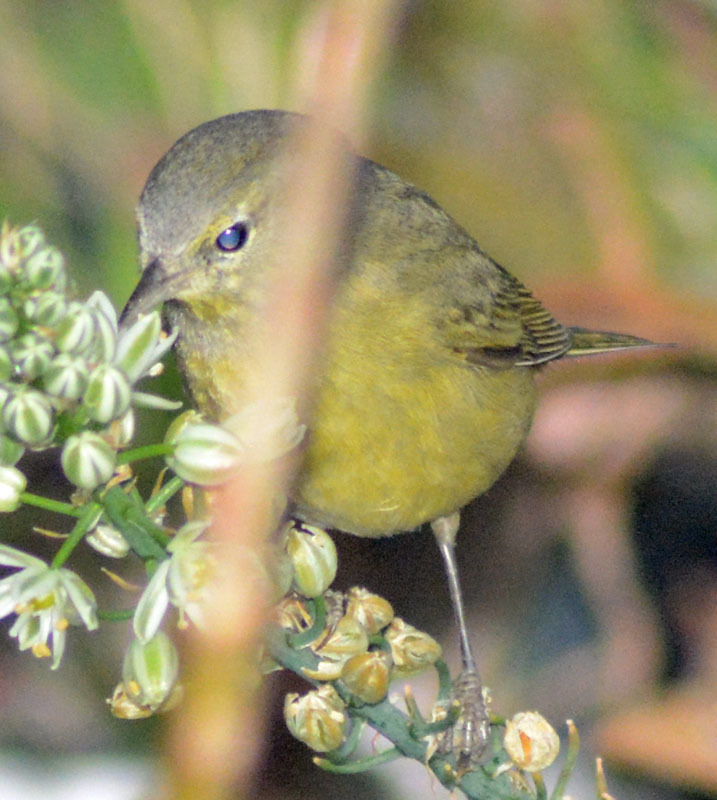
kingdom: Animalia
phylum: Chordata
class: Aves
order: Passeriformes
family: Parulidae
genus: Leiothlypis
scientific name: Leiothlypis celata
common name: Orange-crowned warbler
